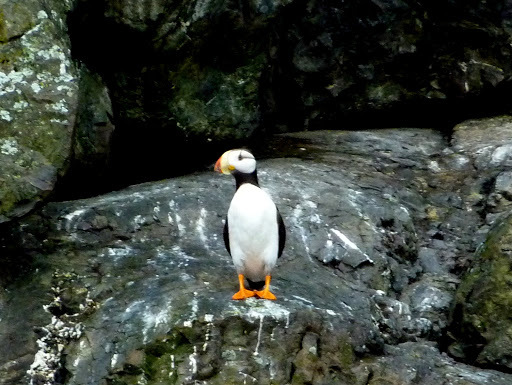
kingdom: Animalia
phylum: Chordata
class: Aves
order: Charadriiformes
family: Alcidae
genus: Fratercula
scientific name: Fratercula corniculata
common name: Horned puffin
